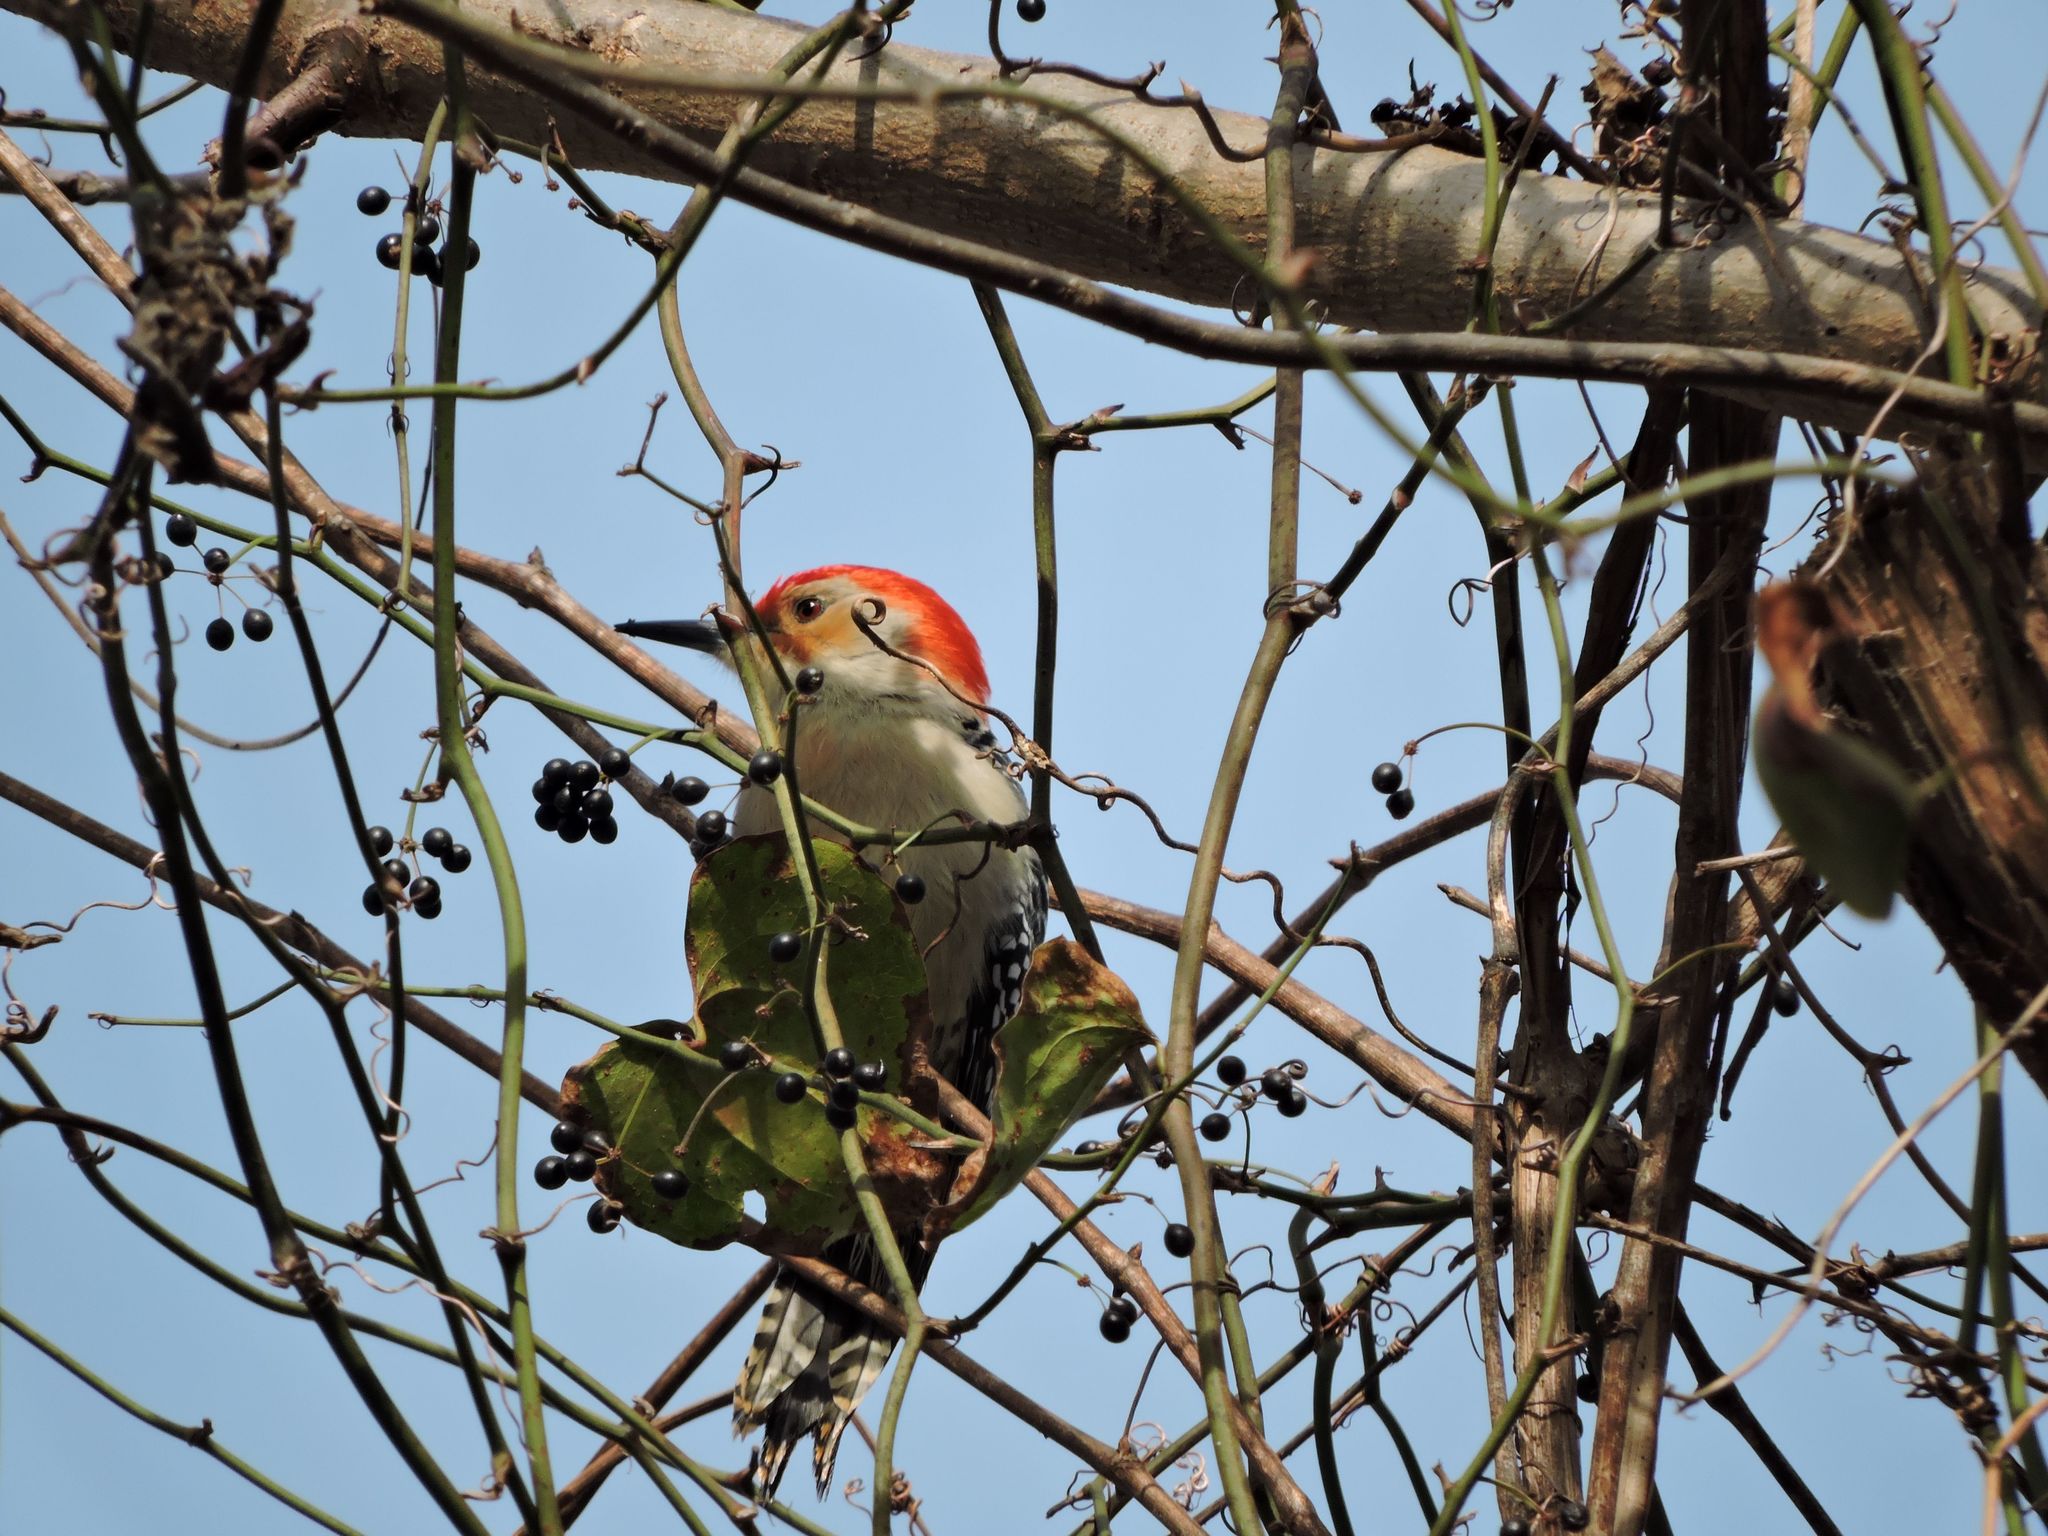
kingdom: Animalia
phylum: Chordata
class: Aves
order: Piciformes
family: Picidae
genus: Melanerpes
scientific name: Melanerpes carolinus
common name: Red-bellied woodpecker
